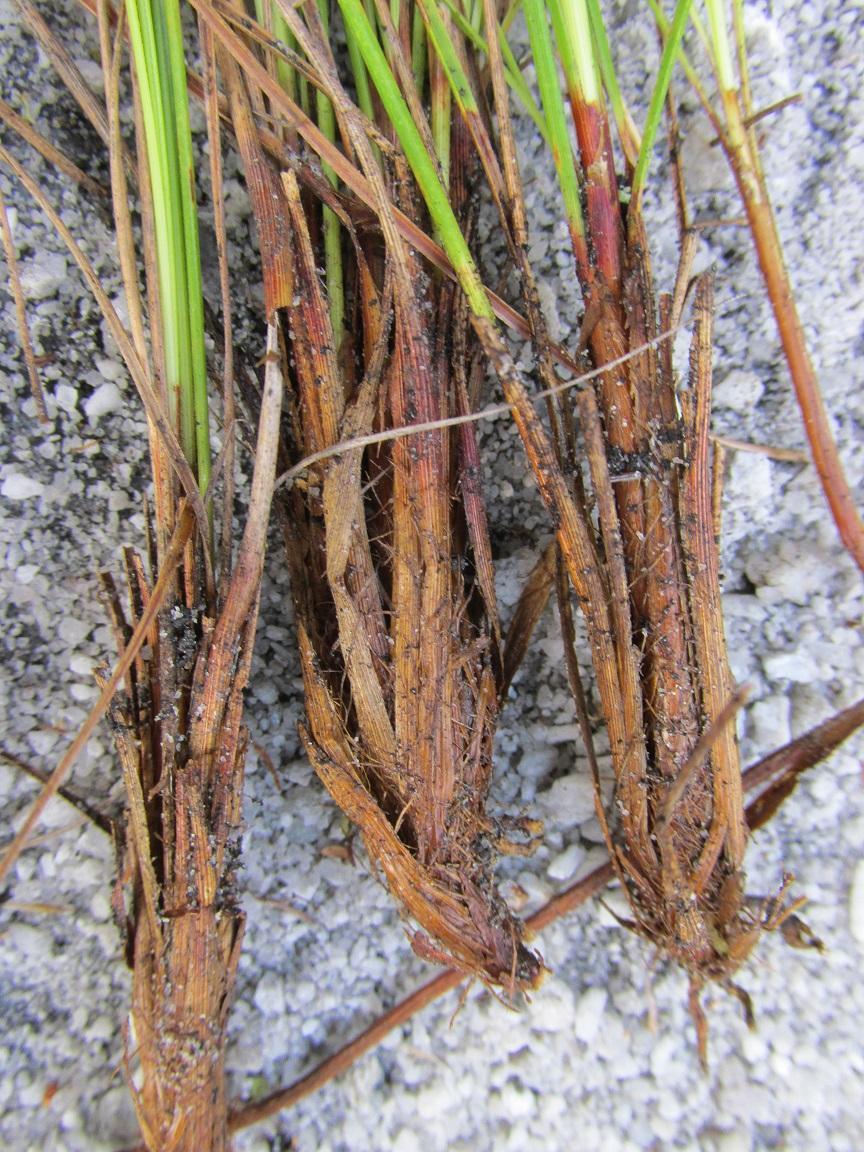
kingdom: Plantae
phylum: Tracheophyta
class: Liliopsida
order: Poales
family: Cyperaceae
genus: Tetraria
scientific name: Tetraria microstachys
